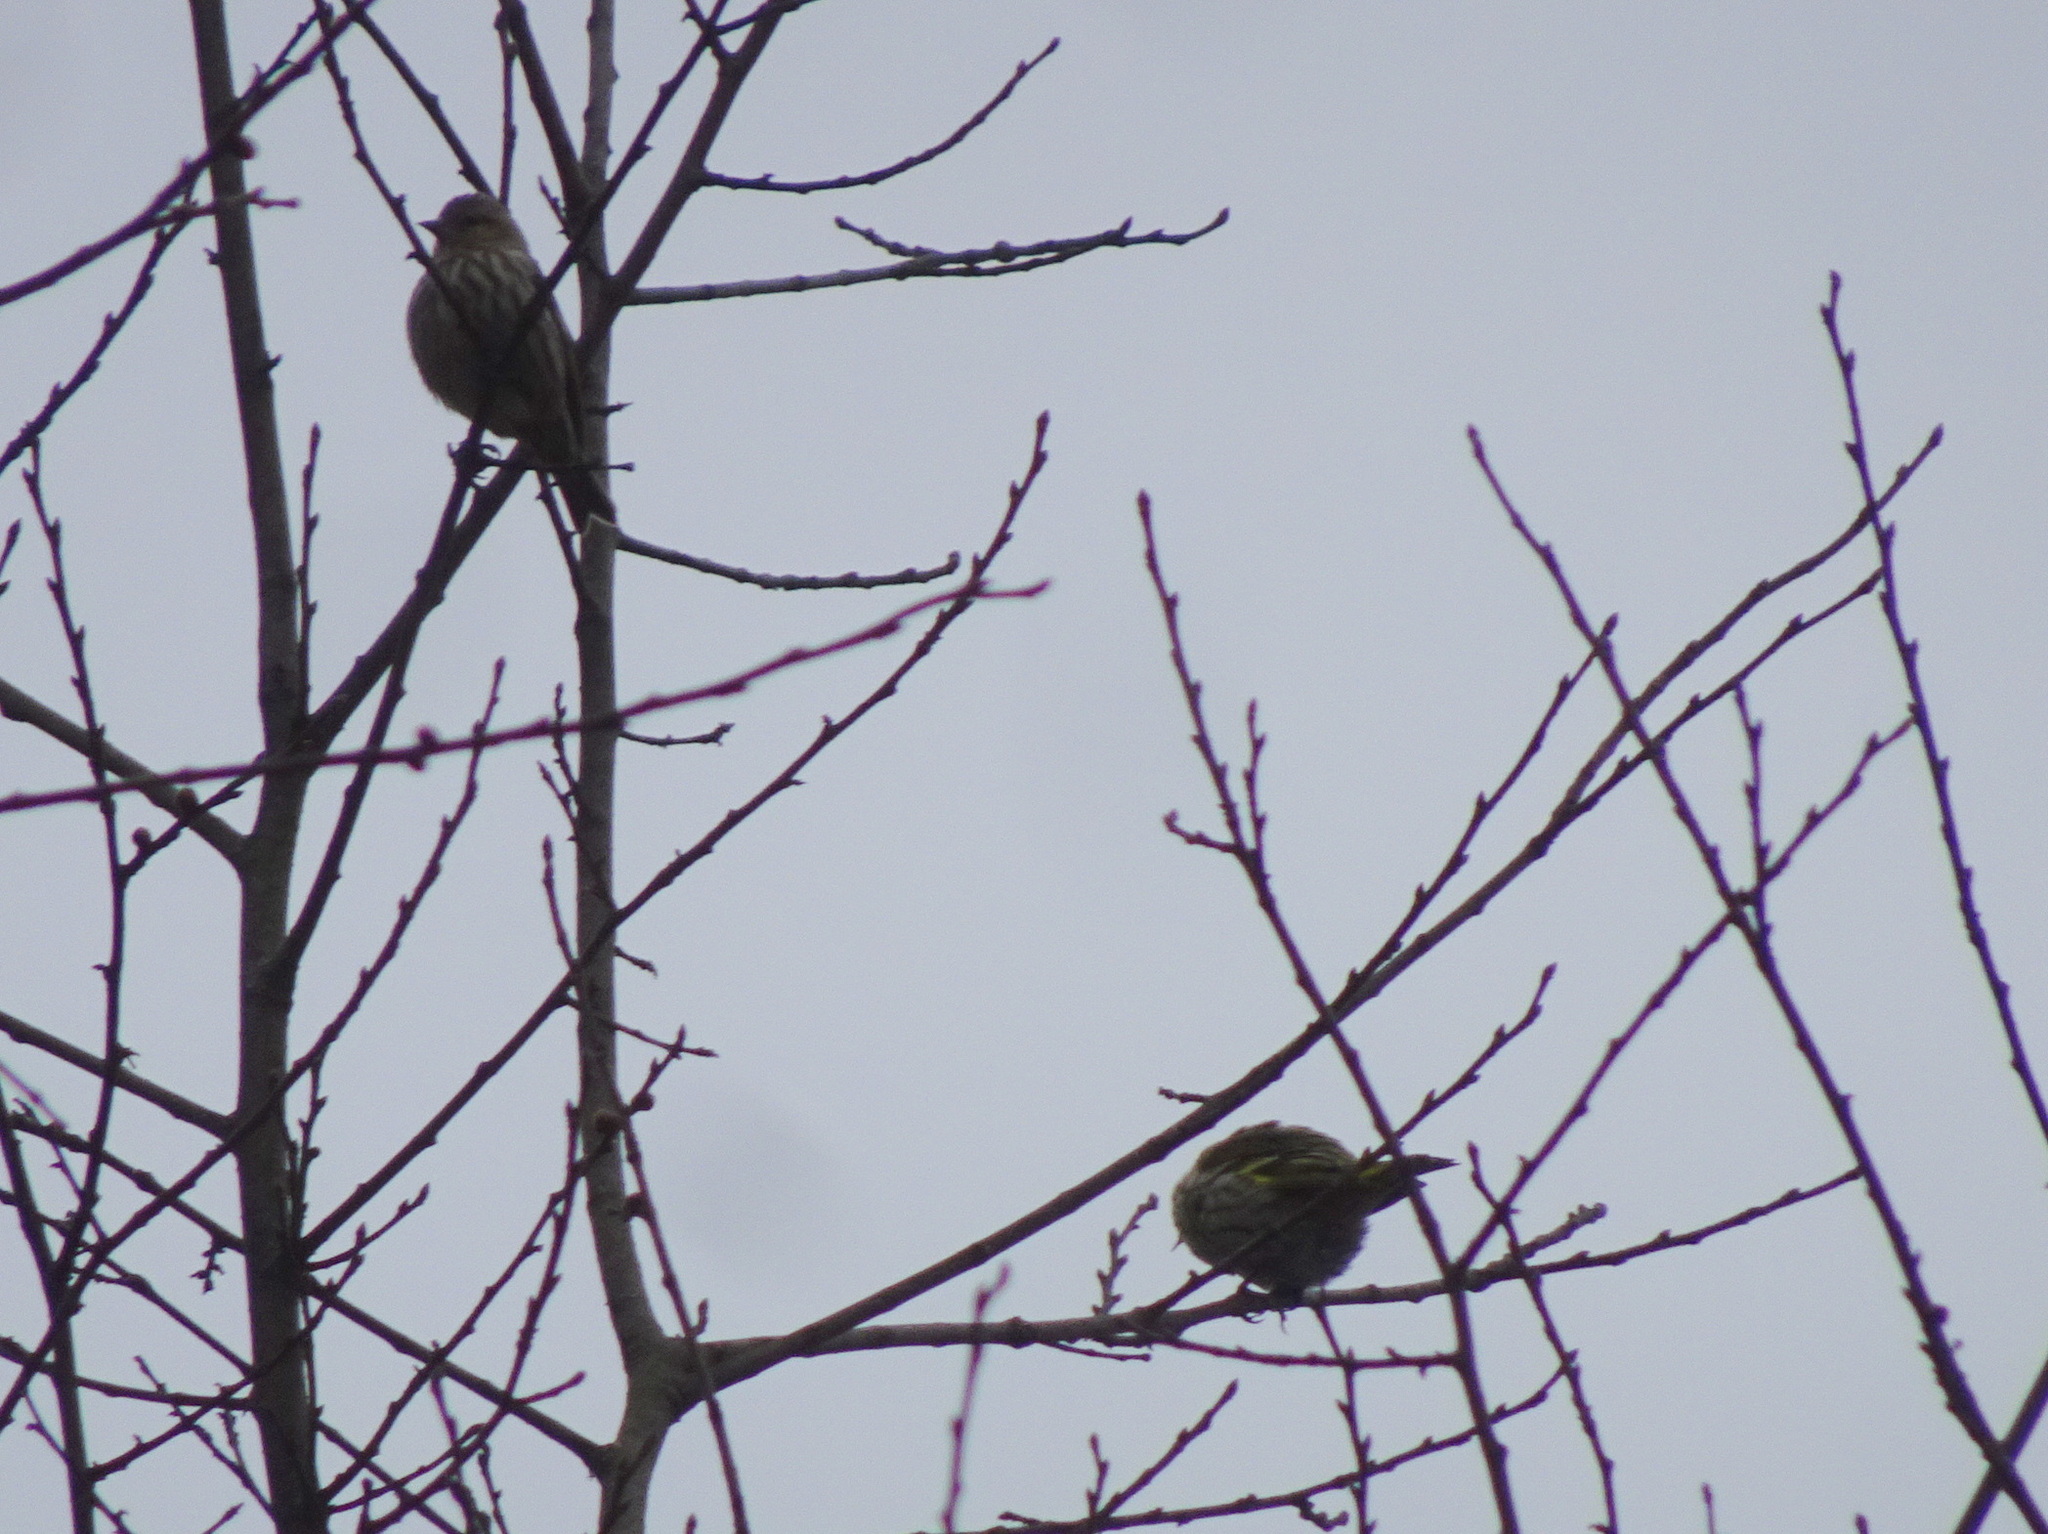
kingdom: Animalia
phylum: Chordata
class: Aves
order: Passeriformes
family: Fringillidae
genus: Spinus
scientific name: Spinus pinus
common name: Pine siskin
